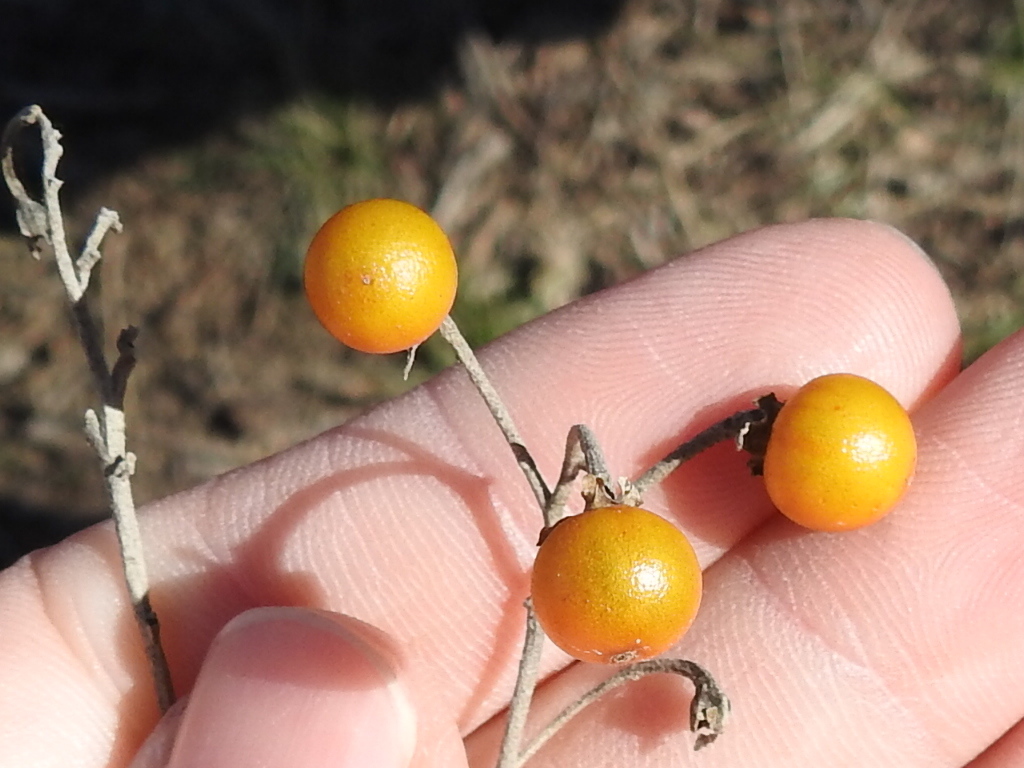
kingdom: Plantae
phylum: Tracheophyta
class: Magnoliopsida
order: Solanales
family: Solanaceae
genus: Solanum
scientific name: Solanum elaeagnifolium
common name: Silverleaf nightshade
